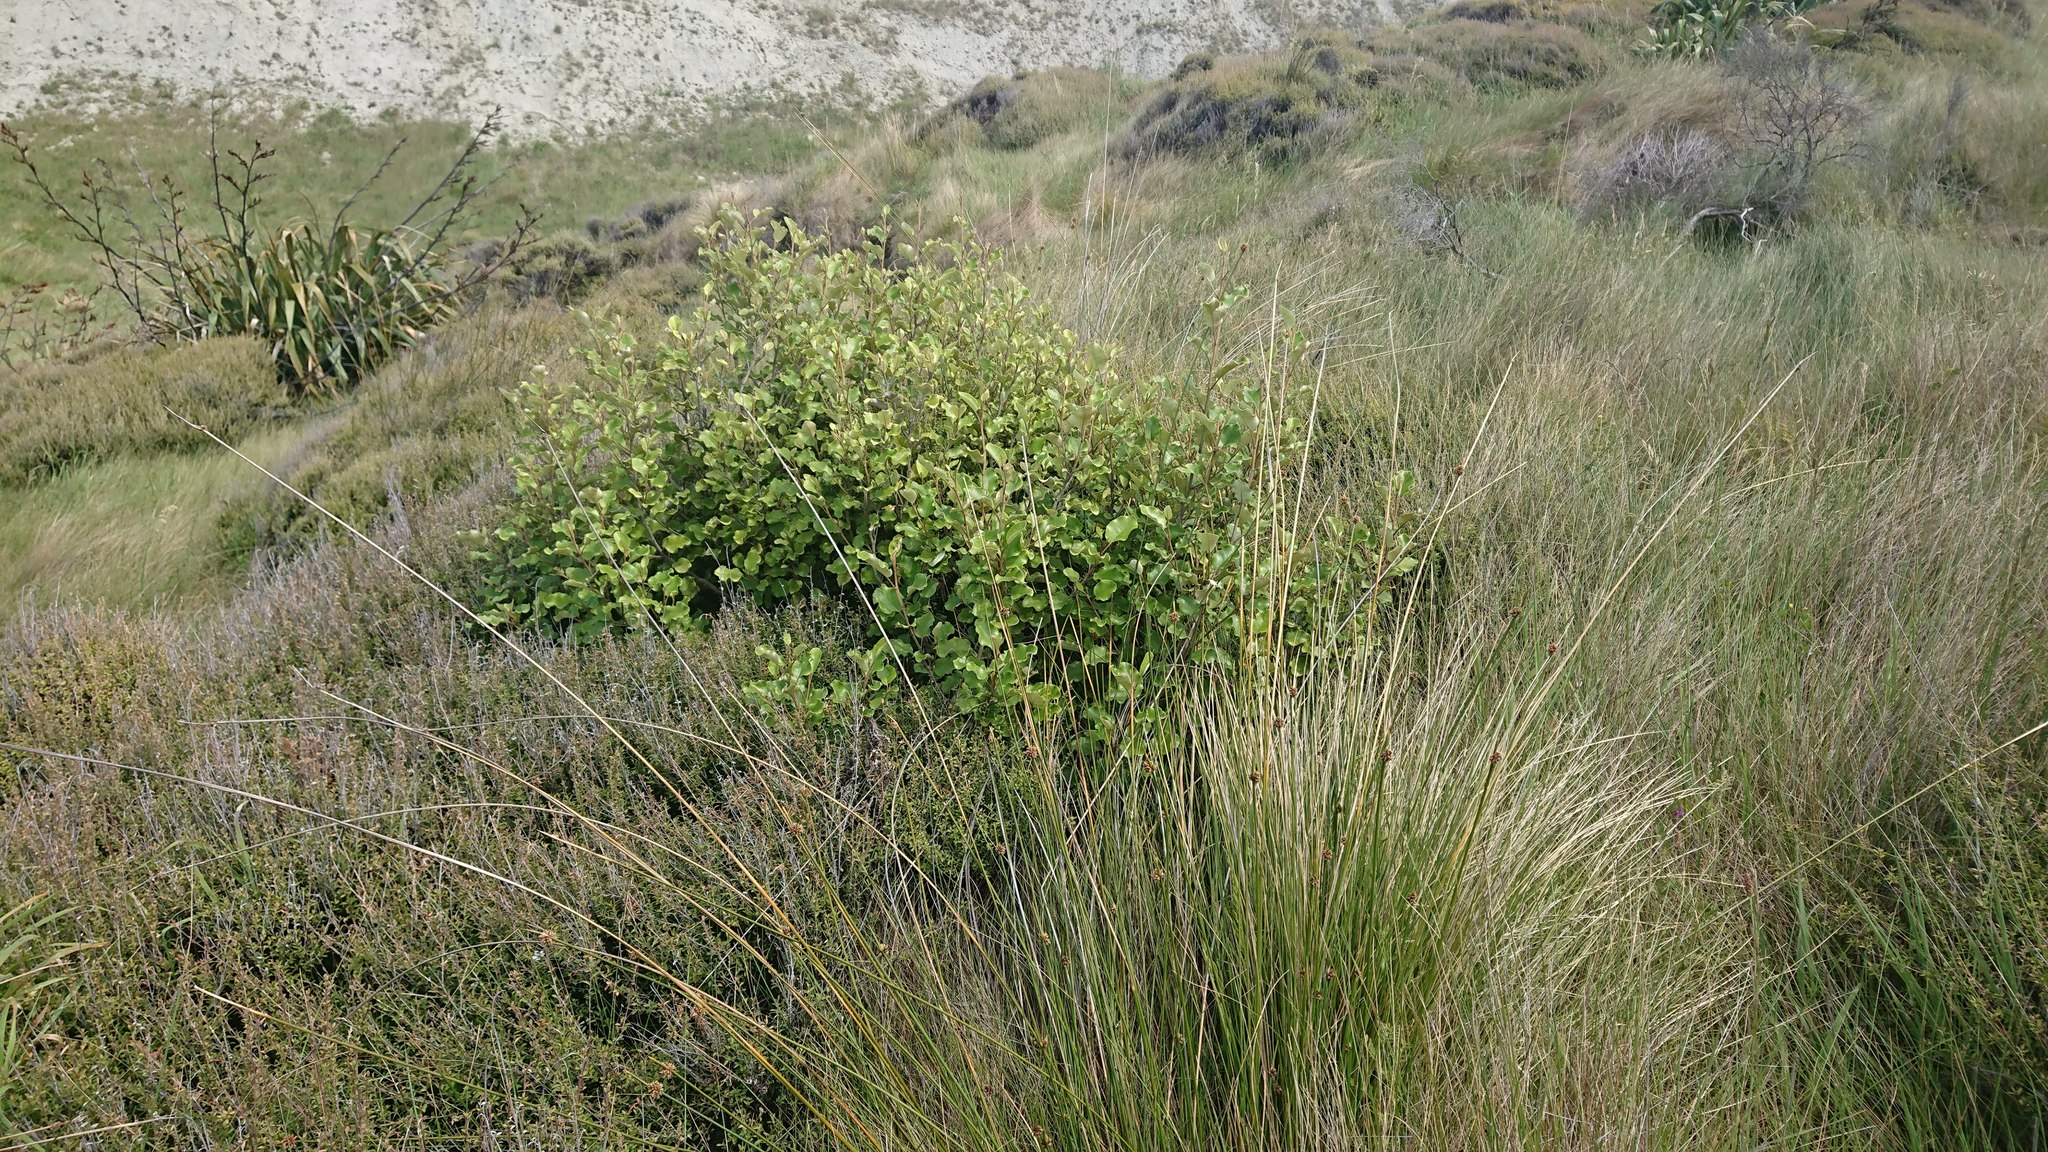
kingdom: Plantae
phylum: Tracheophyta
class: Magnoliopsida
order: Asterales
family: Asteraceae
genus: Olearia
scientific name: Olearia paniculata
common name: Akiraho
